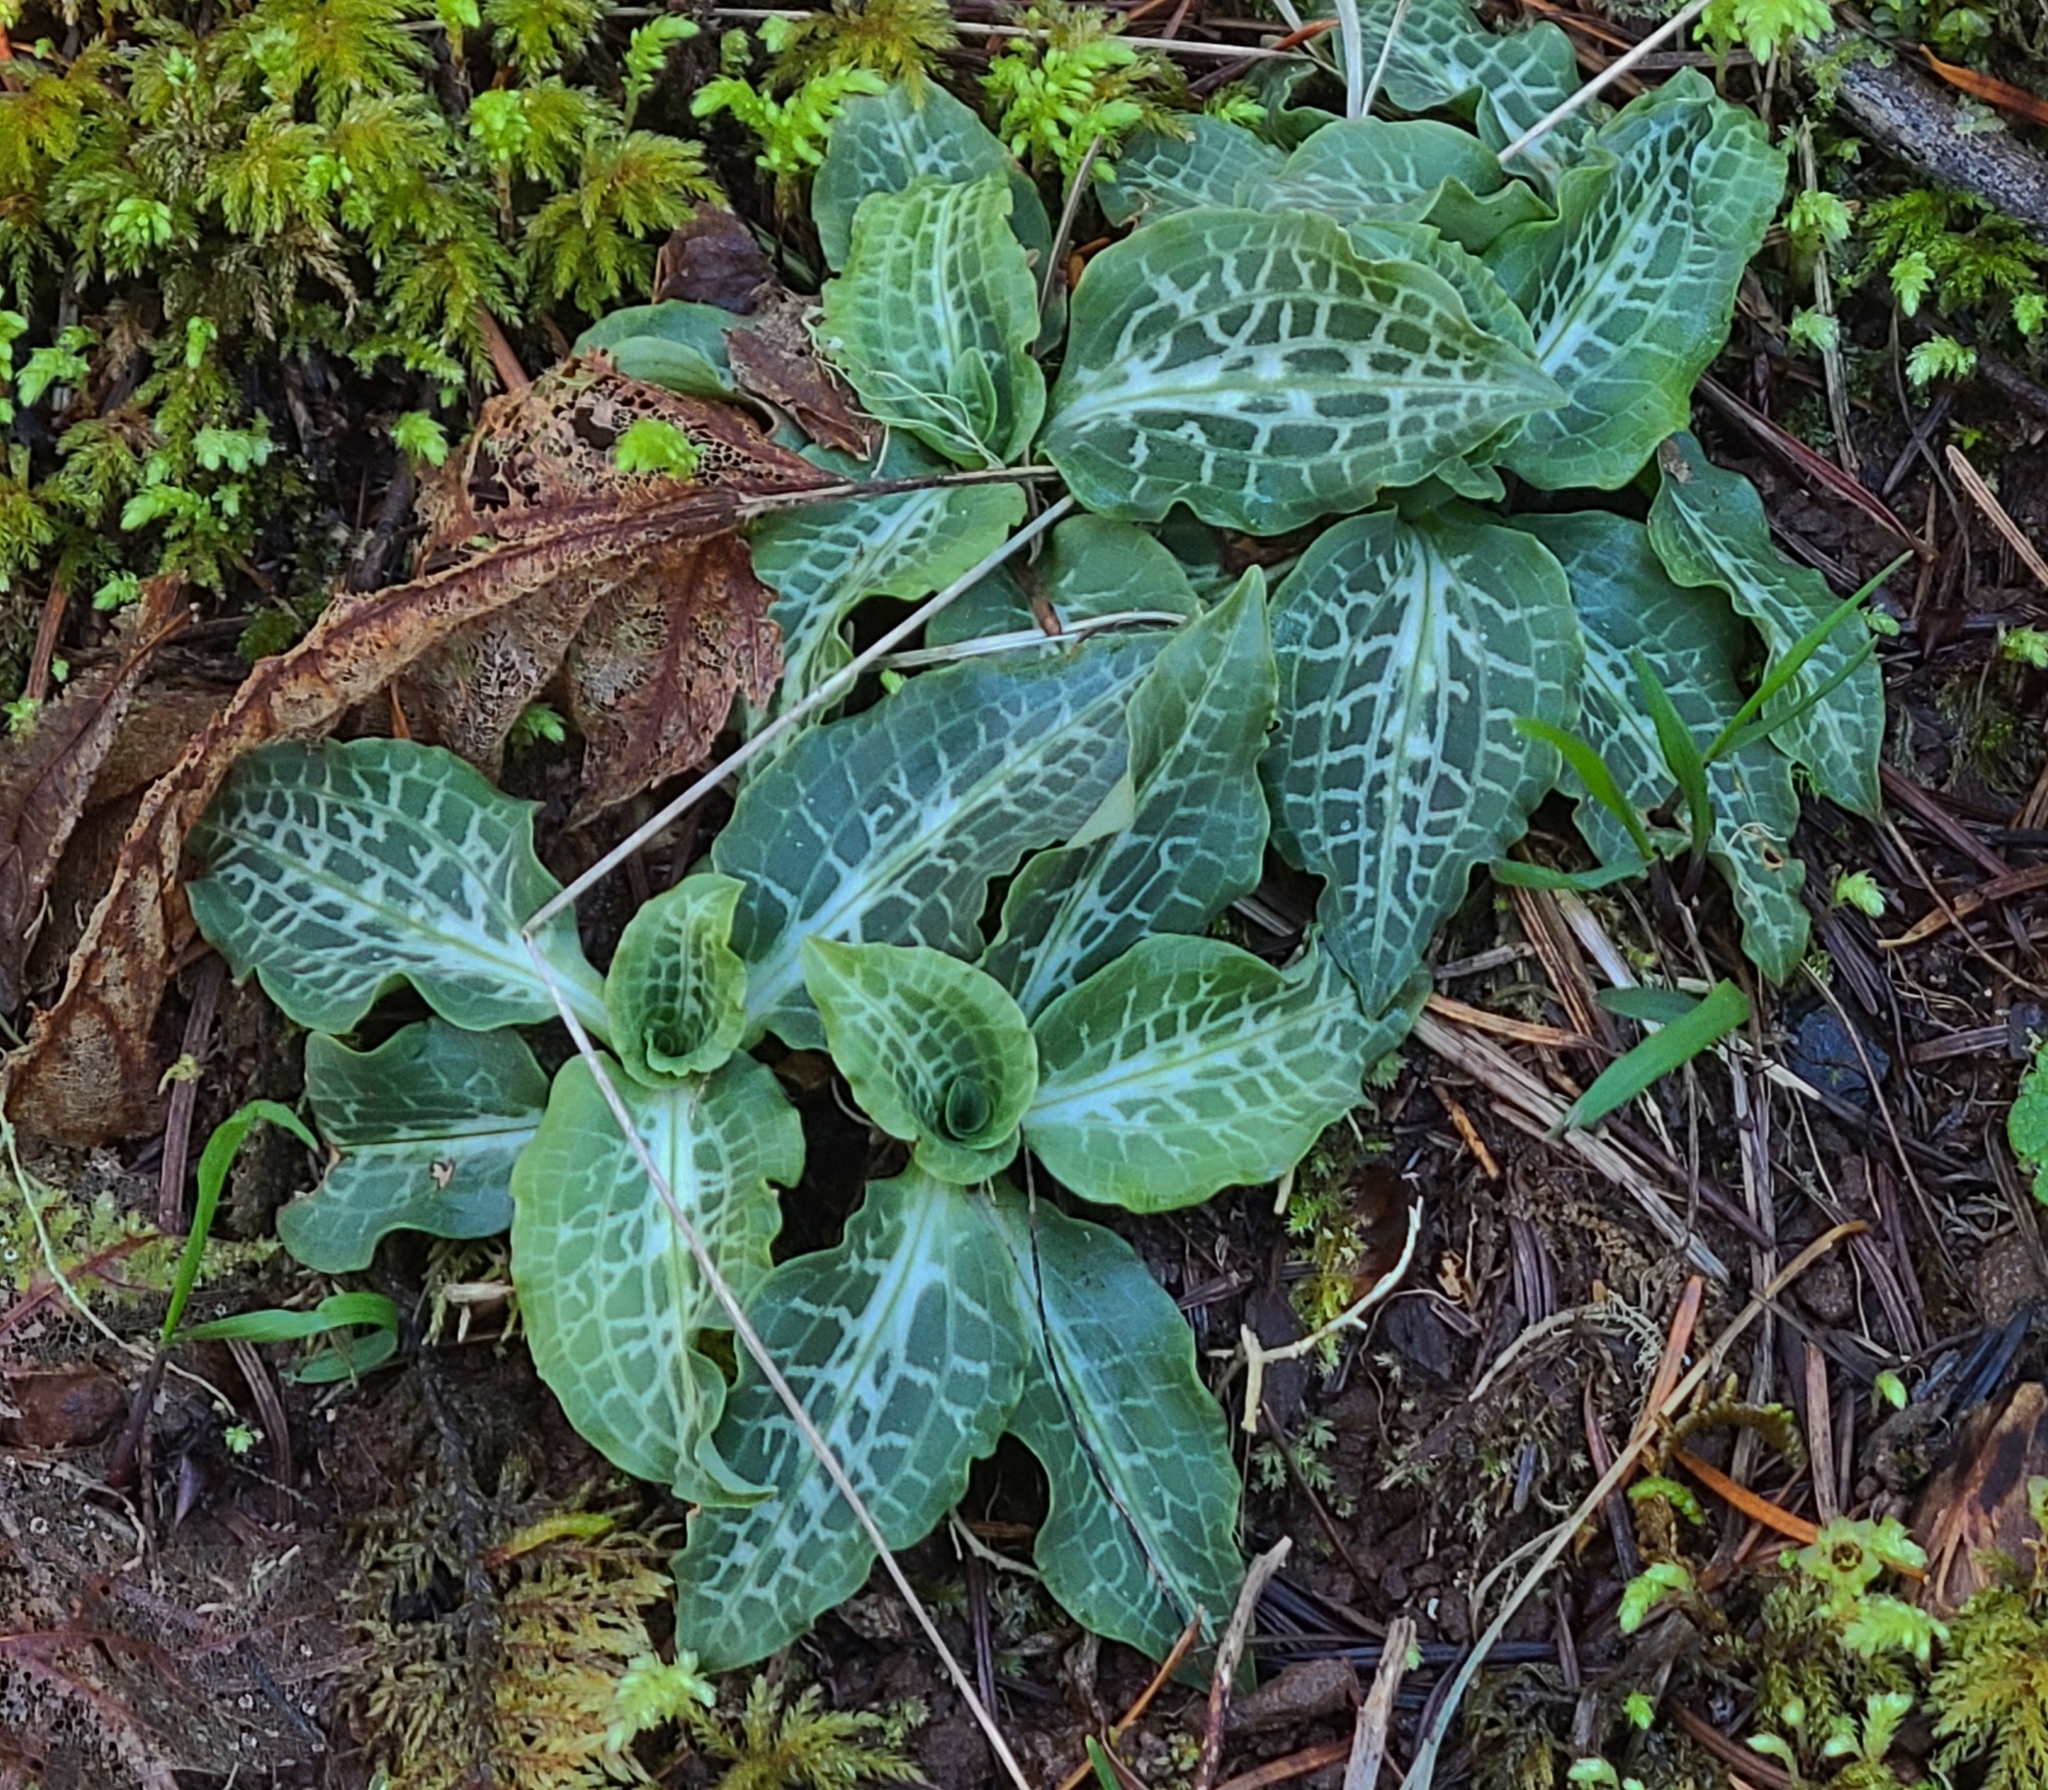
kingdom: Plantae
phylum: Tracheophyta
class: Liliopsida
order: Asparagales
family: Orchidaceae
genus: Goodyera
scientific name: Goodyera oblongifolia
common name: Giant rattlesnake-plantain
